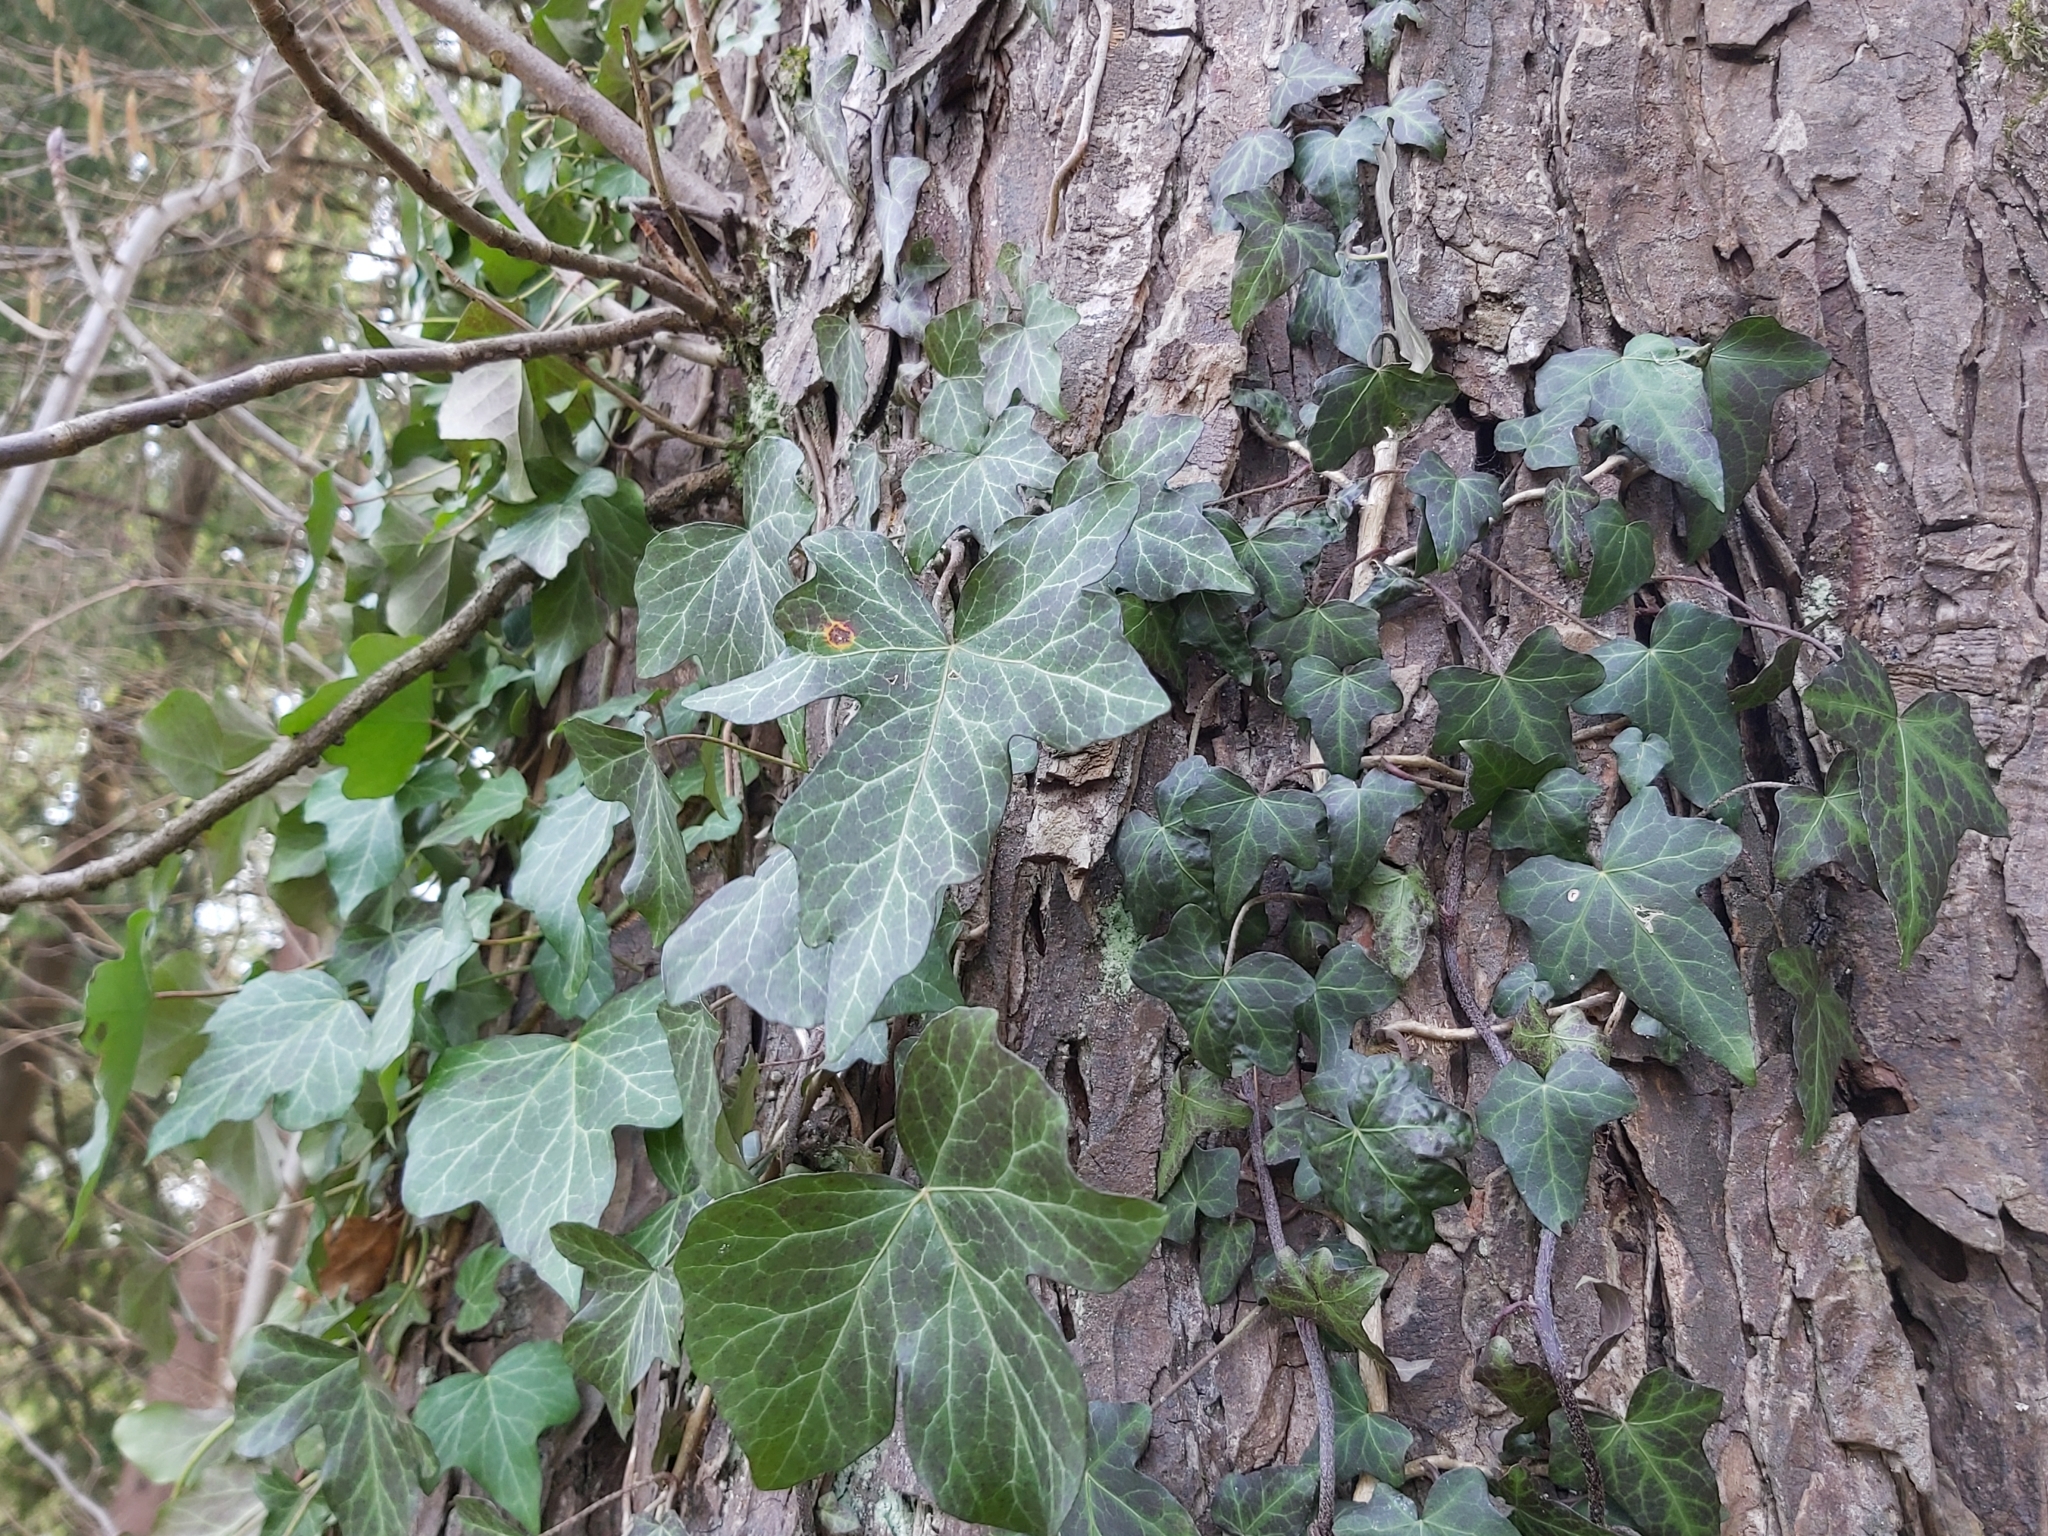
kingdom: Plantae
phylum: Tracheophyta
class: Magnoliopsida
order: Apiales
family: Araliaceae
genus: Hedera
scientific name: Hedera helix
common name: Ivy
